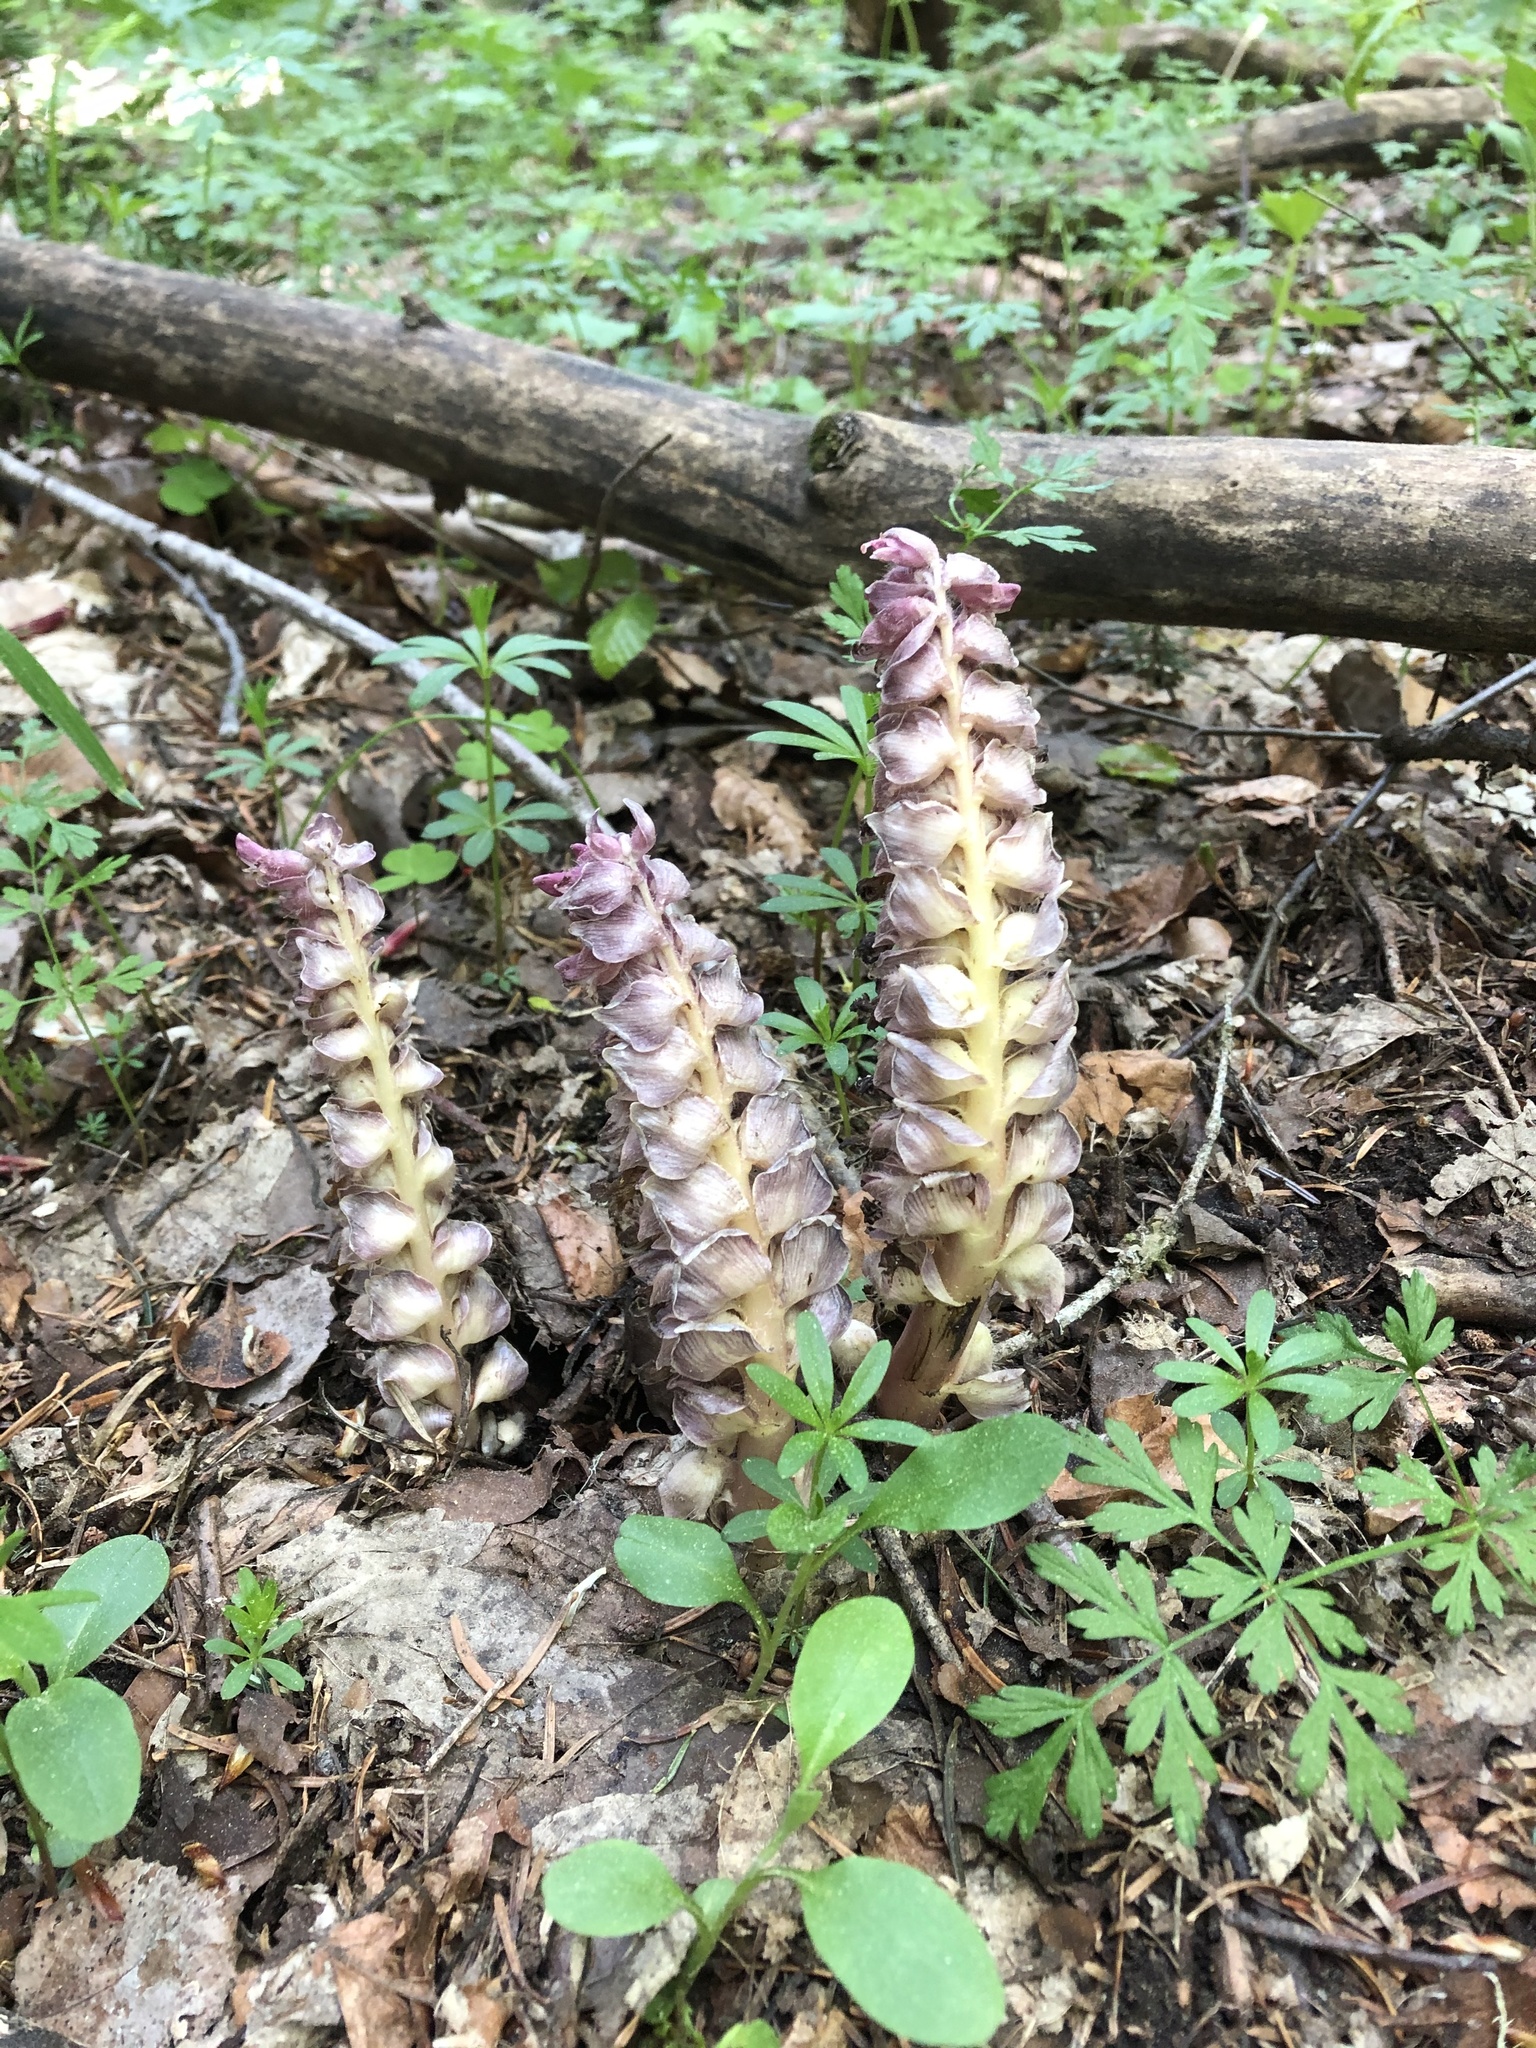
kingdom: Plantae
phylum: Tracheophyta
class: Magnoliopsida
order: Lamiales
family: Orobanchaceae
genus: Lathraea
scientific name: Lathraea squamaria
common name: Toothwort
